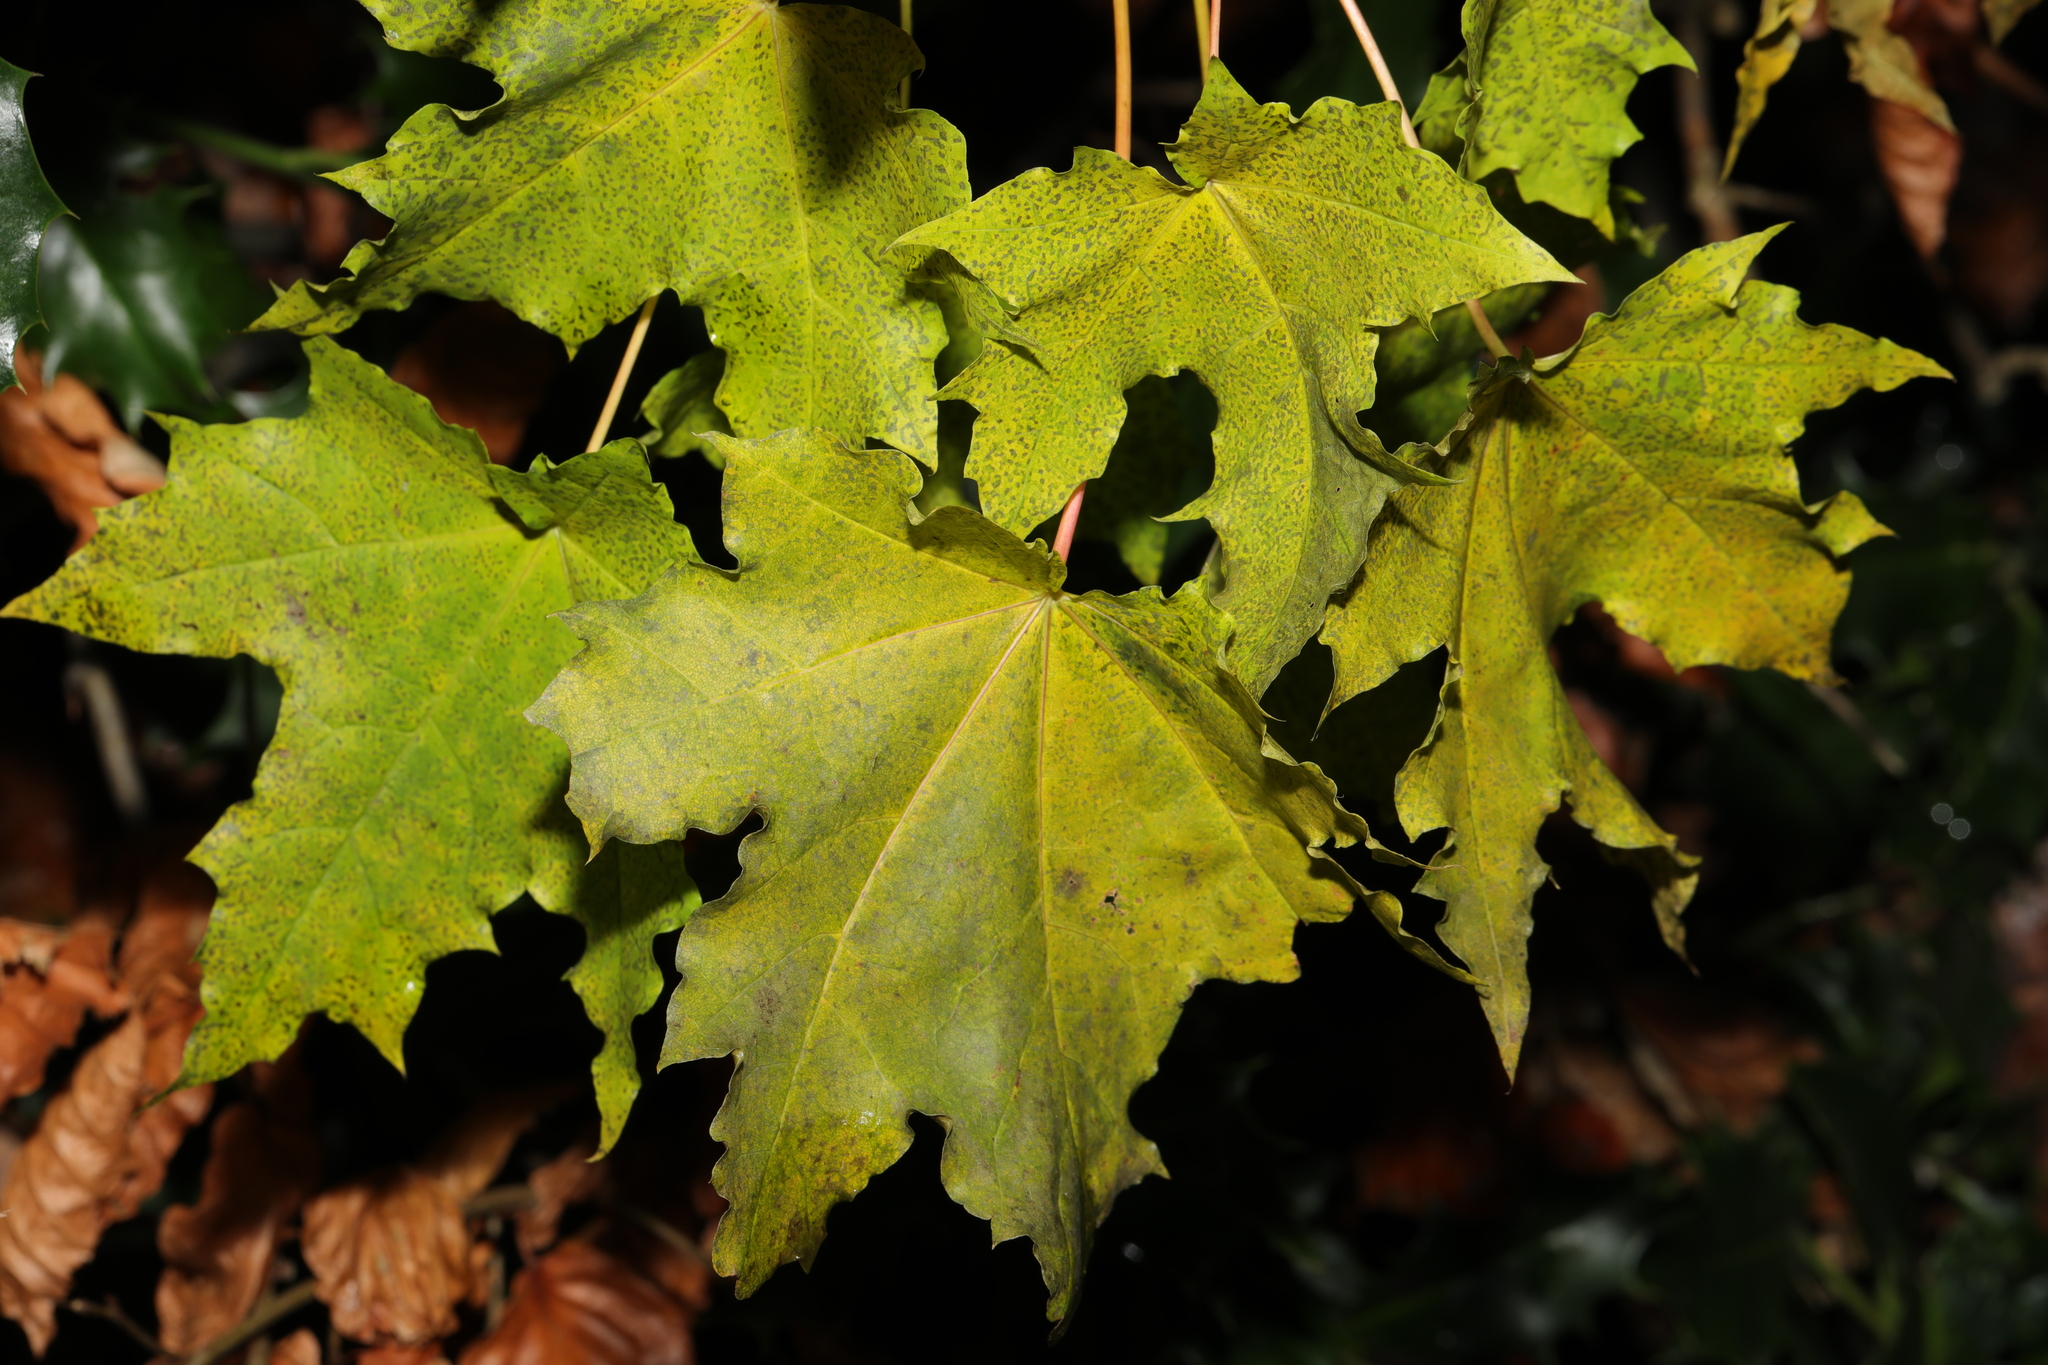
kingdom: Plantae
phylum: Tracheophyta
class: Magnoliopsida
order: Sapindales
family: Sapindaceae
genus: Acer
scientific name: Acer platanoides
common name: Norway maple
